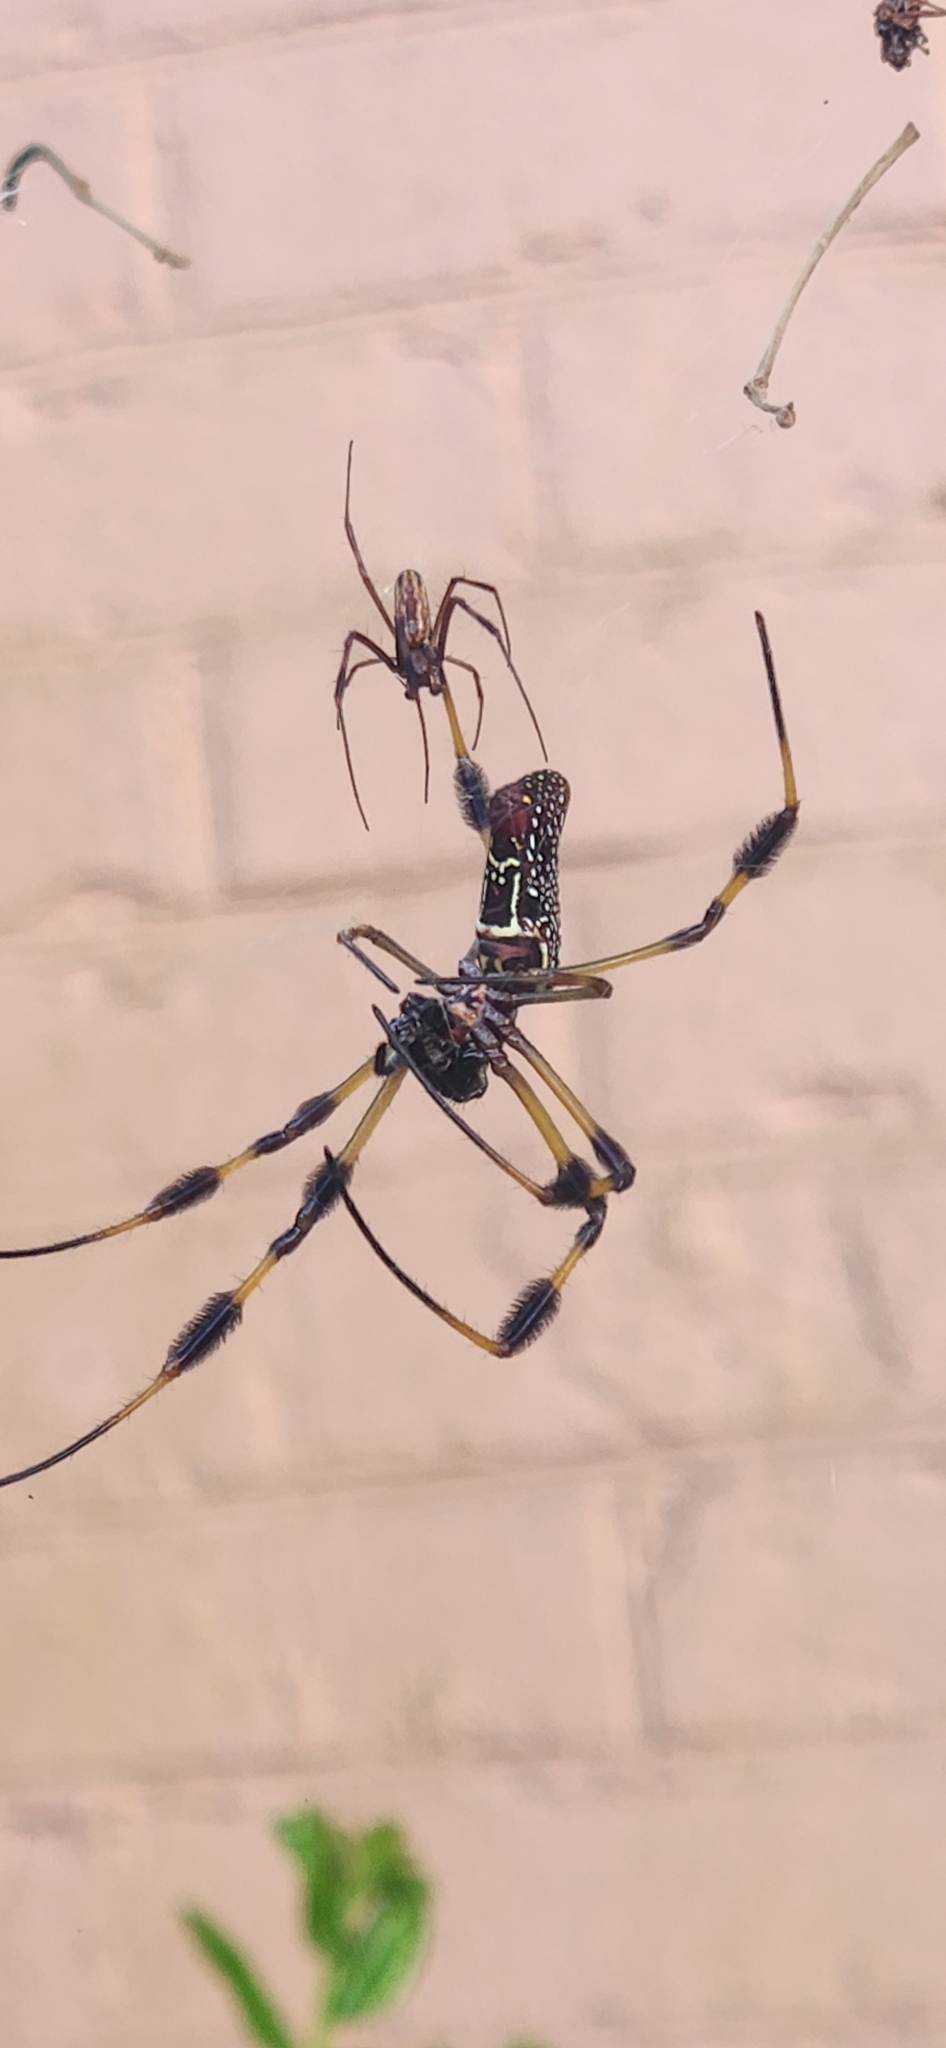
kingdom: Animalia
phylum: Arthropoda
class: Arachnida
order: Araneae
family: Araneidae
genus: Trichonephila
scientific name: Trichonephila clavipes
